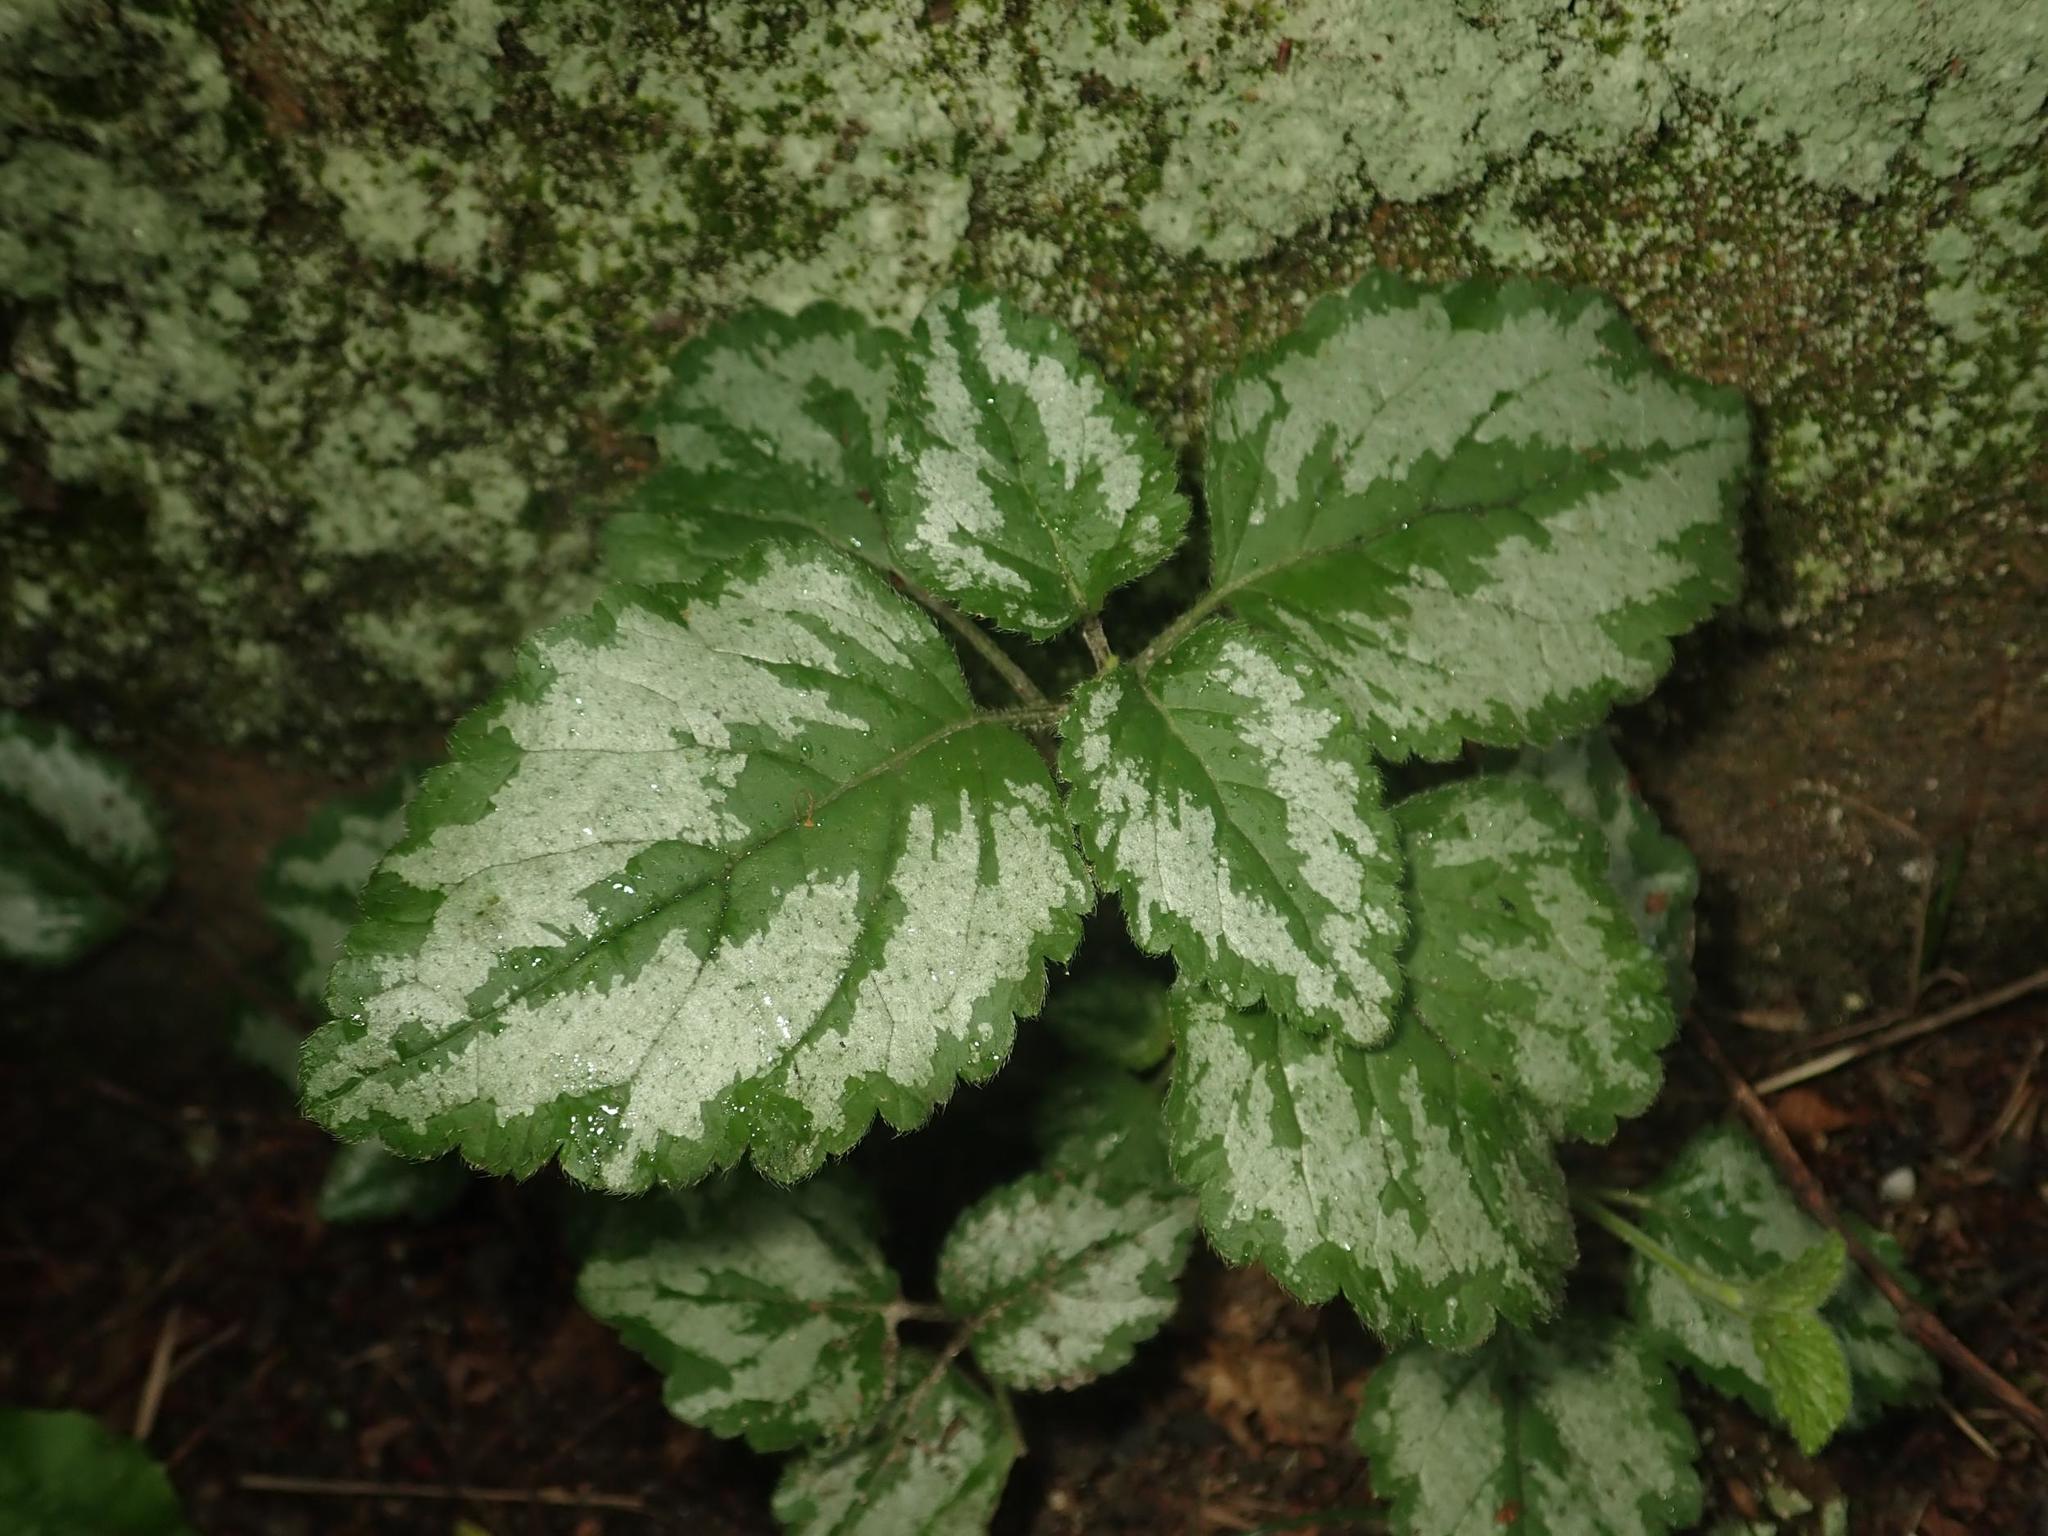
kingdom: Plantae
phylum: Tracheophyta
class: Magnoliopsida
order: Lamiales
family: Lamiaceae
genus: Lamium
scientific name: Lamium galeobdolon
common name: Yellow archangel
